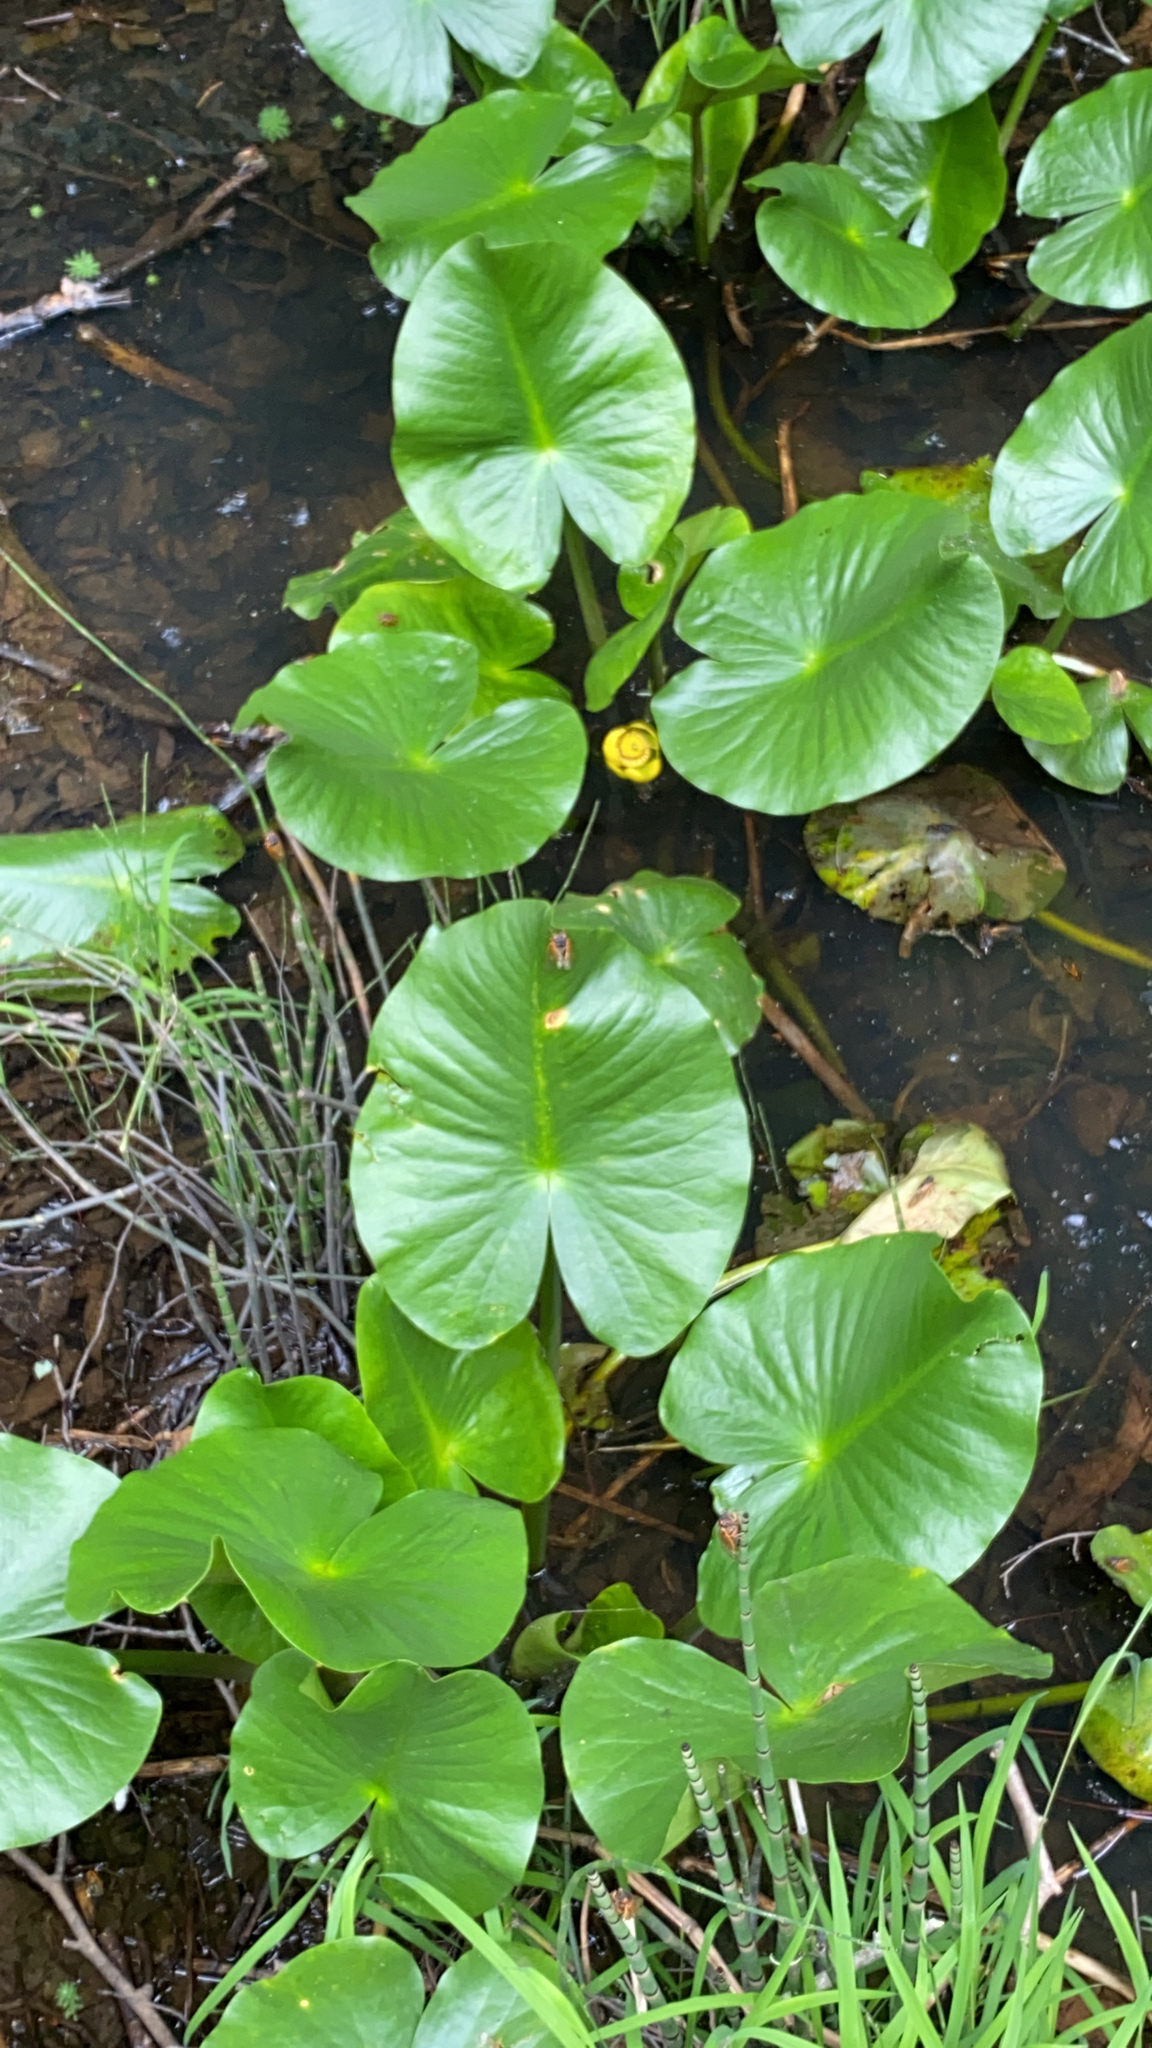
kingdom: Plantae
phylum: Tracheophyta
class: Magnoliopsida
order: Nymphaeales
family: Nymphaeaceae
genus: Nuphar
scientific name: Nuphar advena
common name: Spatter-dock
